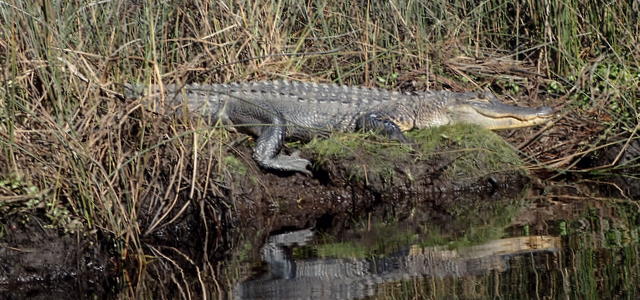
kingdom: Animalia
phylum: Chordata
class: Crocodylia
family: Alligatoridae
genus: Alligator
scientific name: Alligator mississippiensis
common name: American alligator
